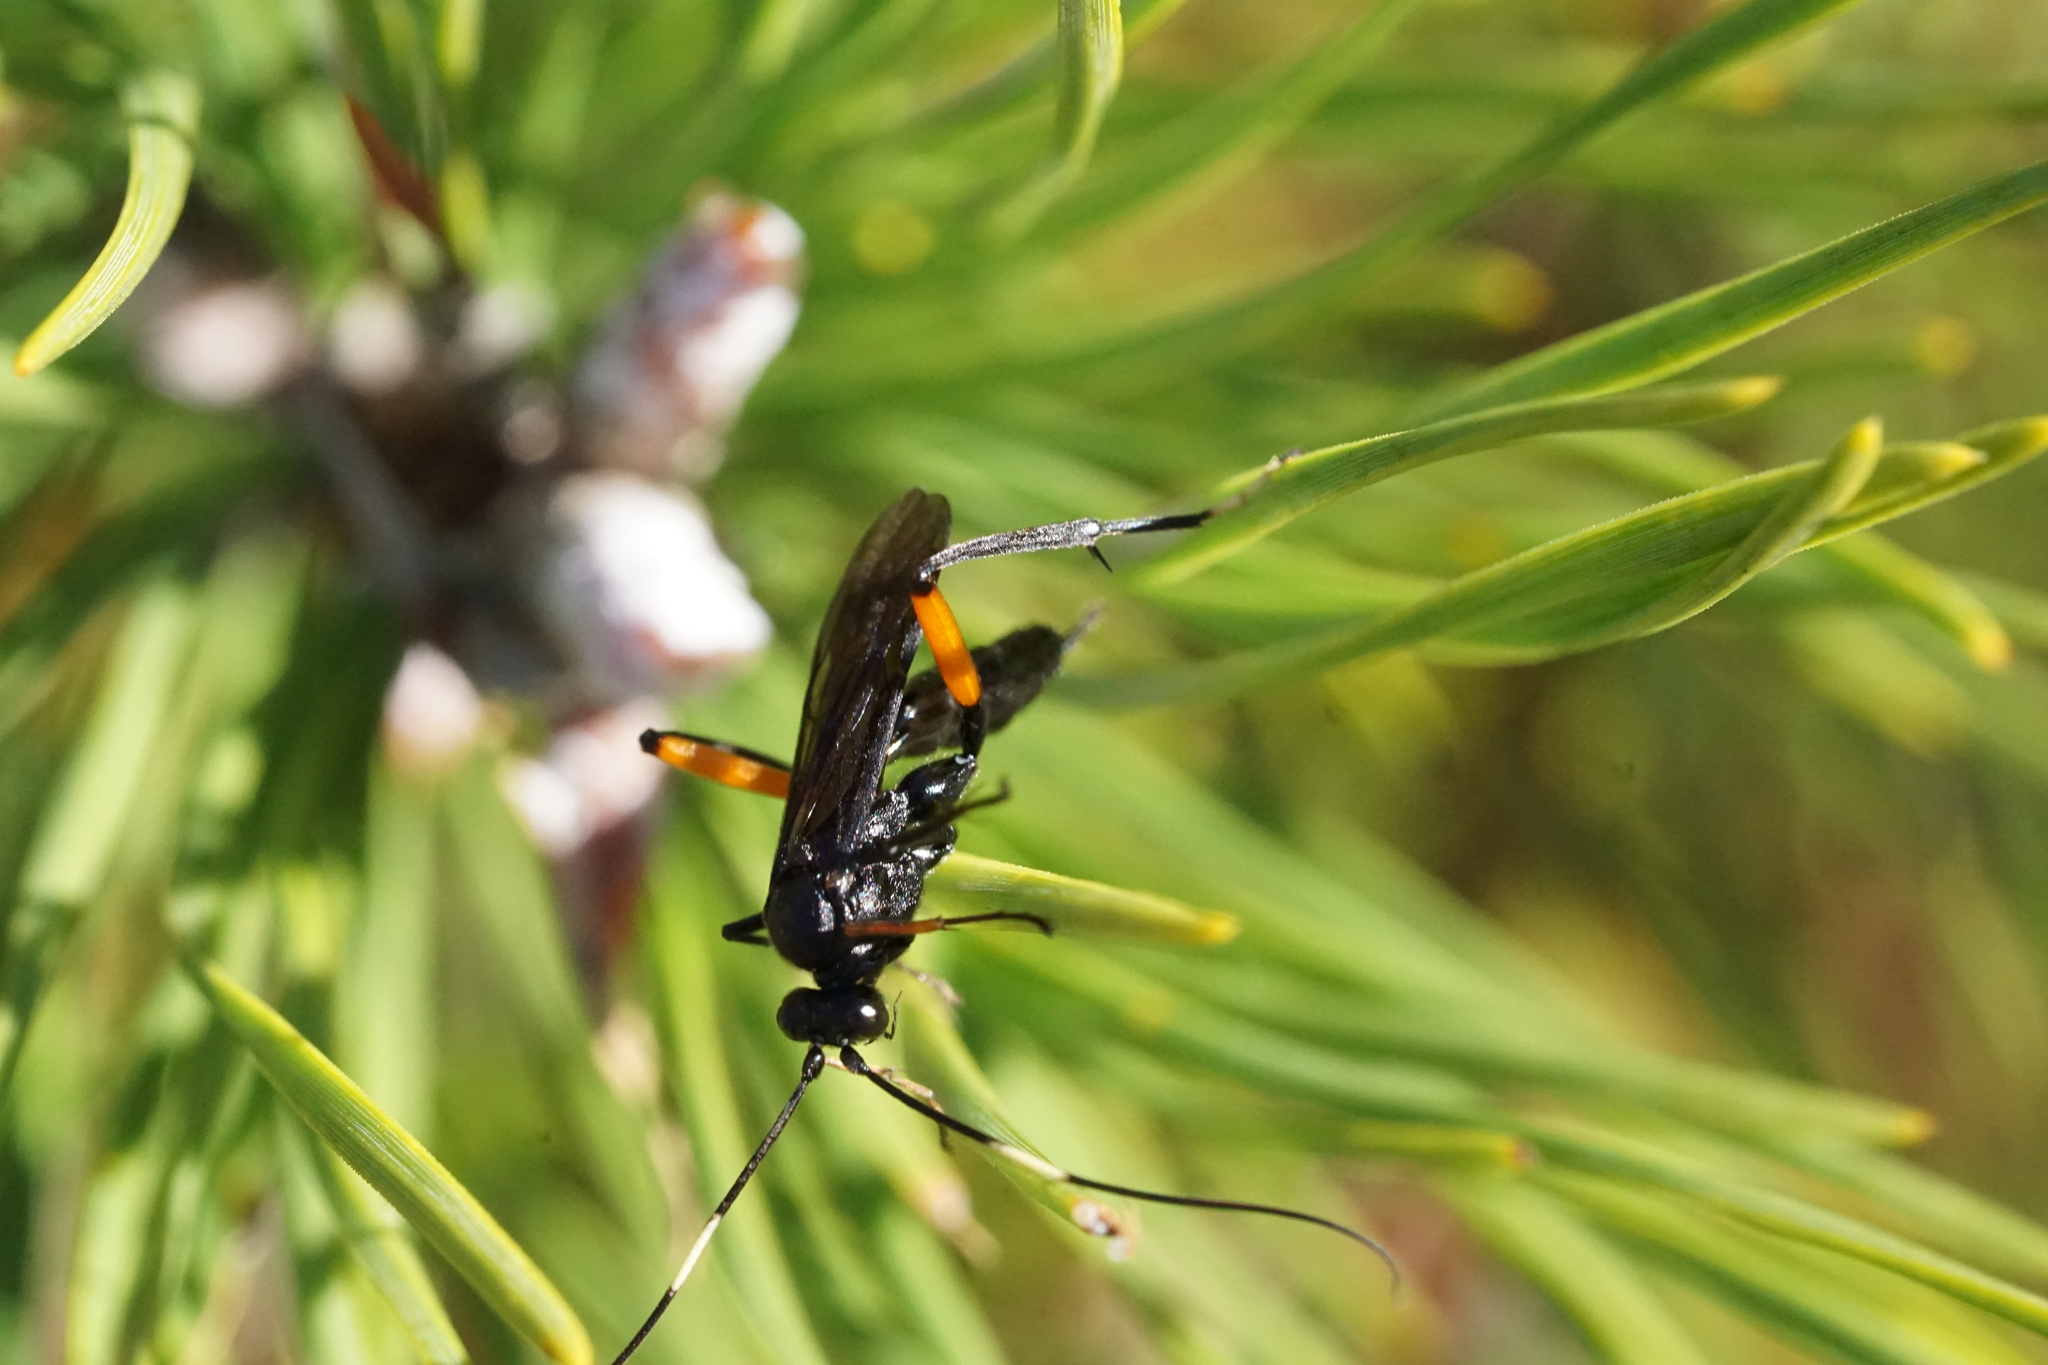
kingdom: Animalia
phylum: Arthropoda
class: Insecta
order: Hymenoptera
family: Ichneumonidae
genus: Exetastes
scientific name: Exetastes bituminosus
